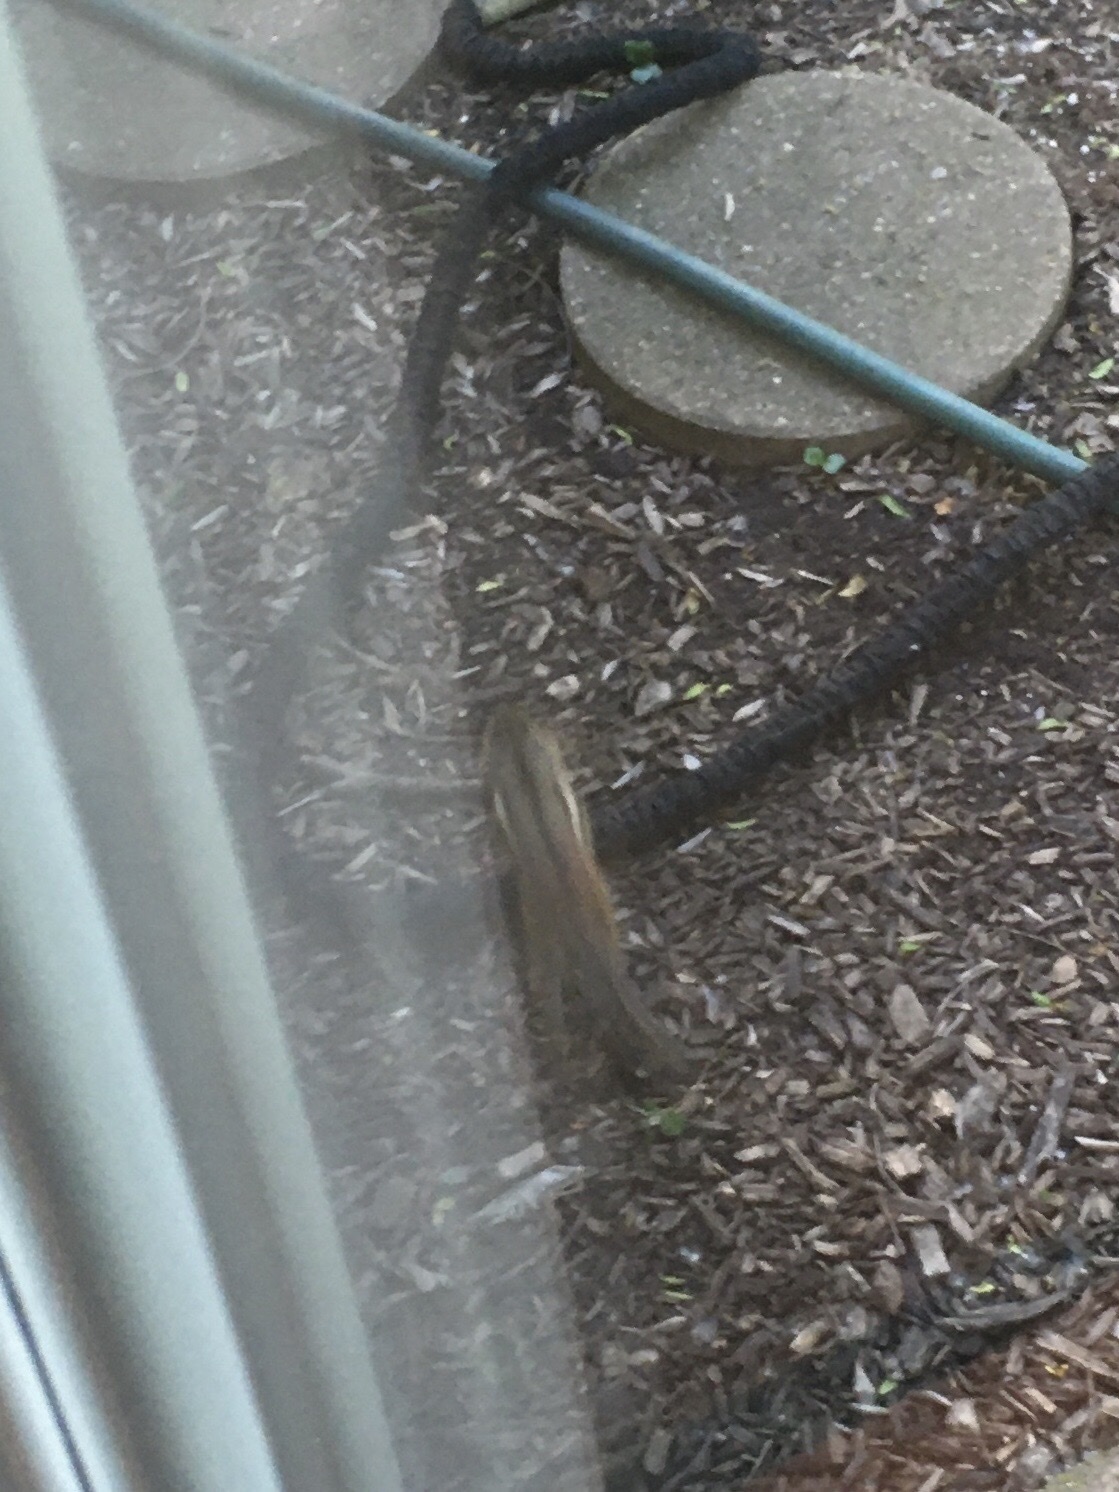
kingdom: Animalia
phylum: Chordata
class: Mammalia
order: Rodentia
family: Sciuridae
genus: Tamias
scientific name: Tamias striatus
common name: Eastern chipmunk
